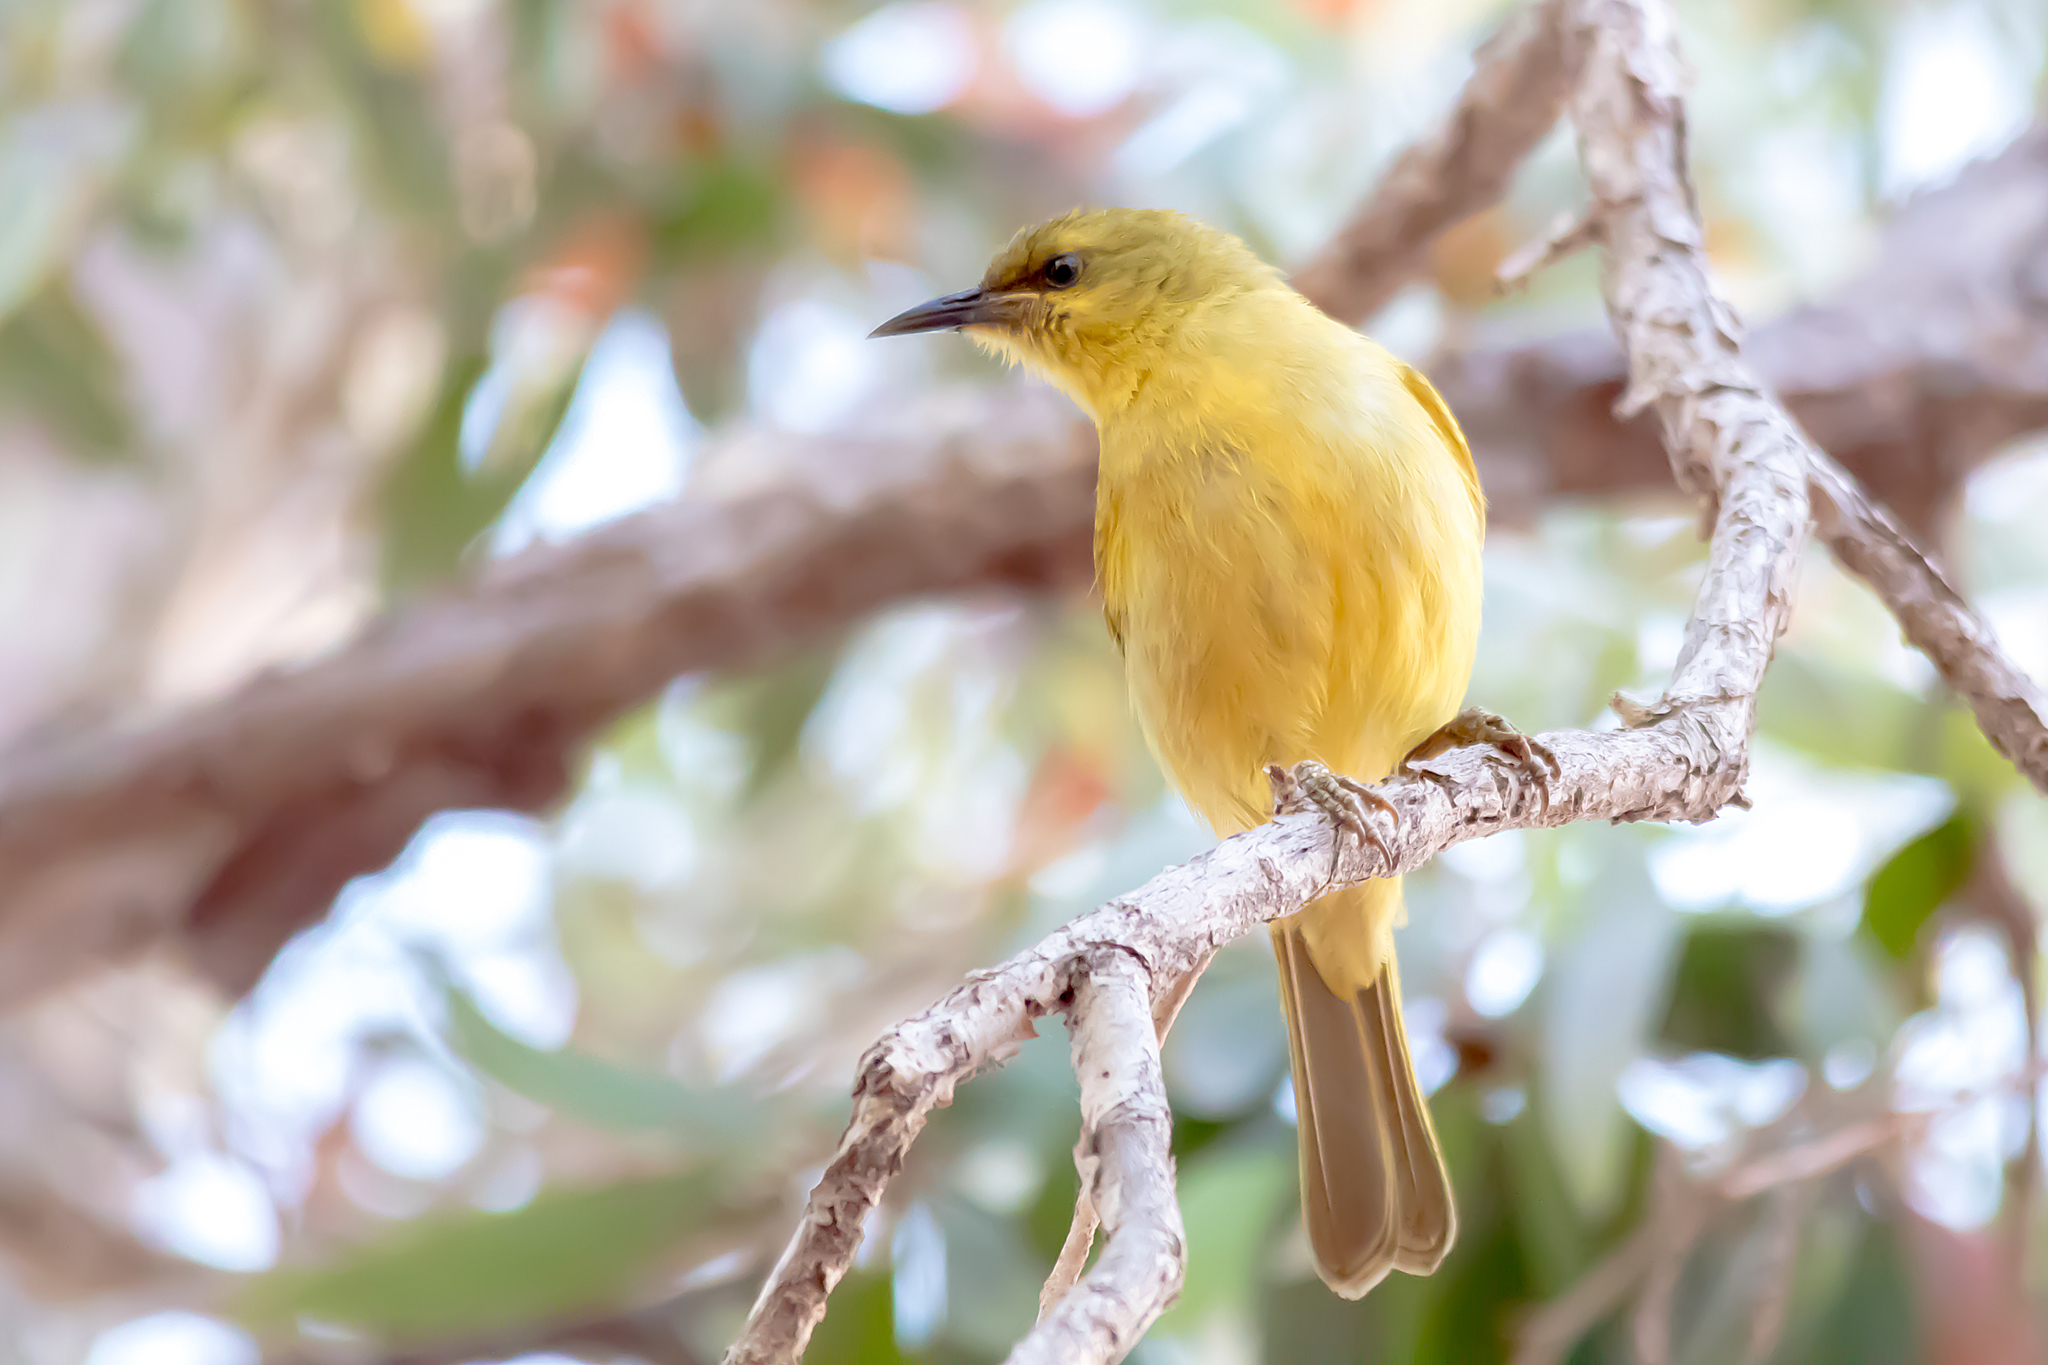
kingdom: Animalia
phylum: Chordata
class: Aves
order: Passeriformes
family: Meliphagidae
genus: Stomiopera
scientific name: Stomiopera flava
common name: Yellow honeyeater
